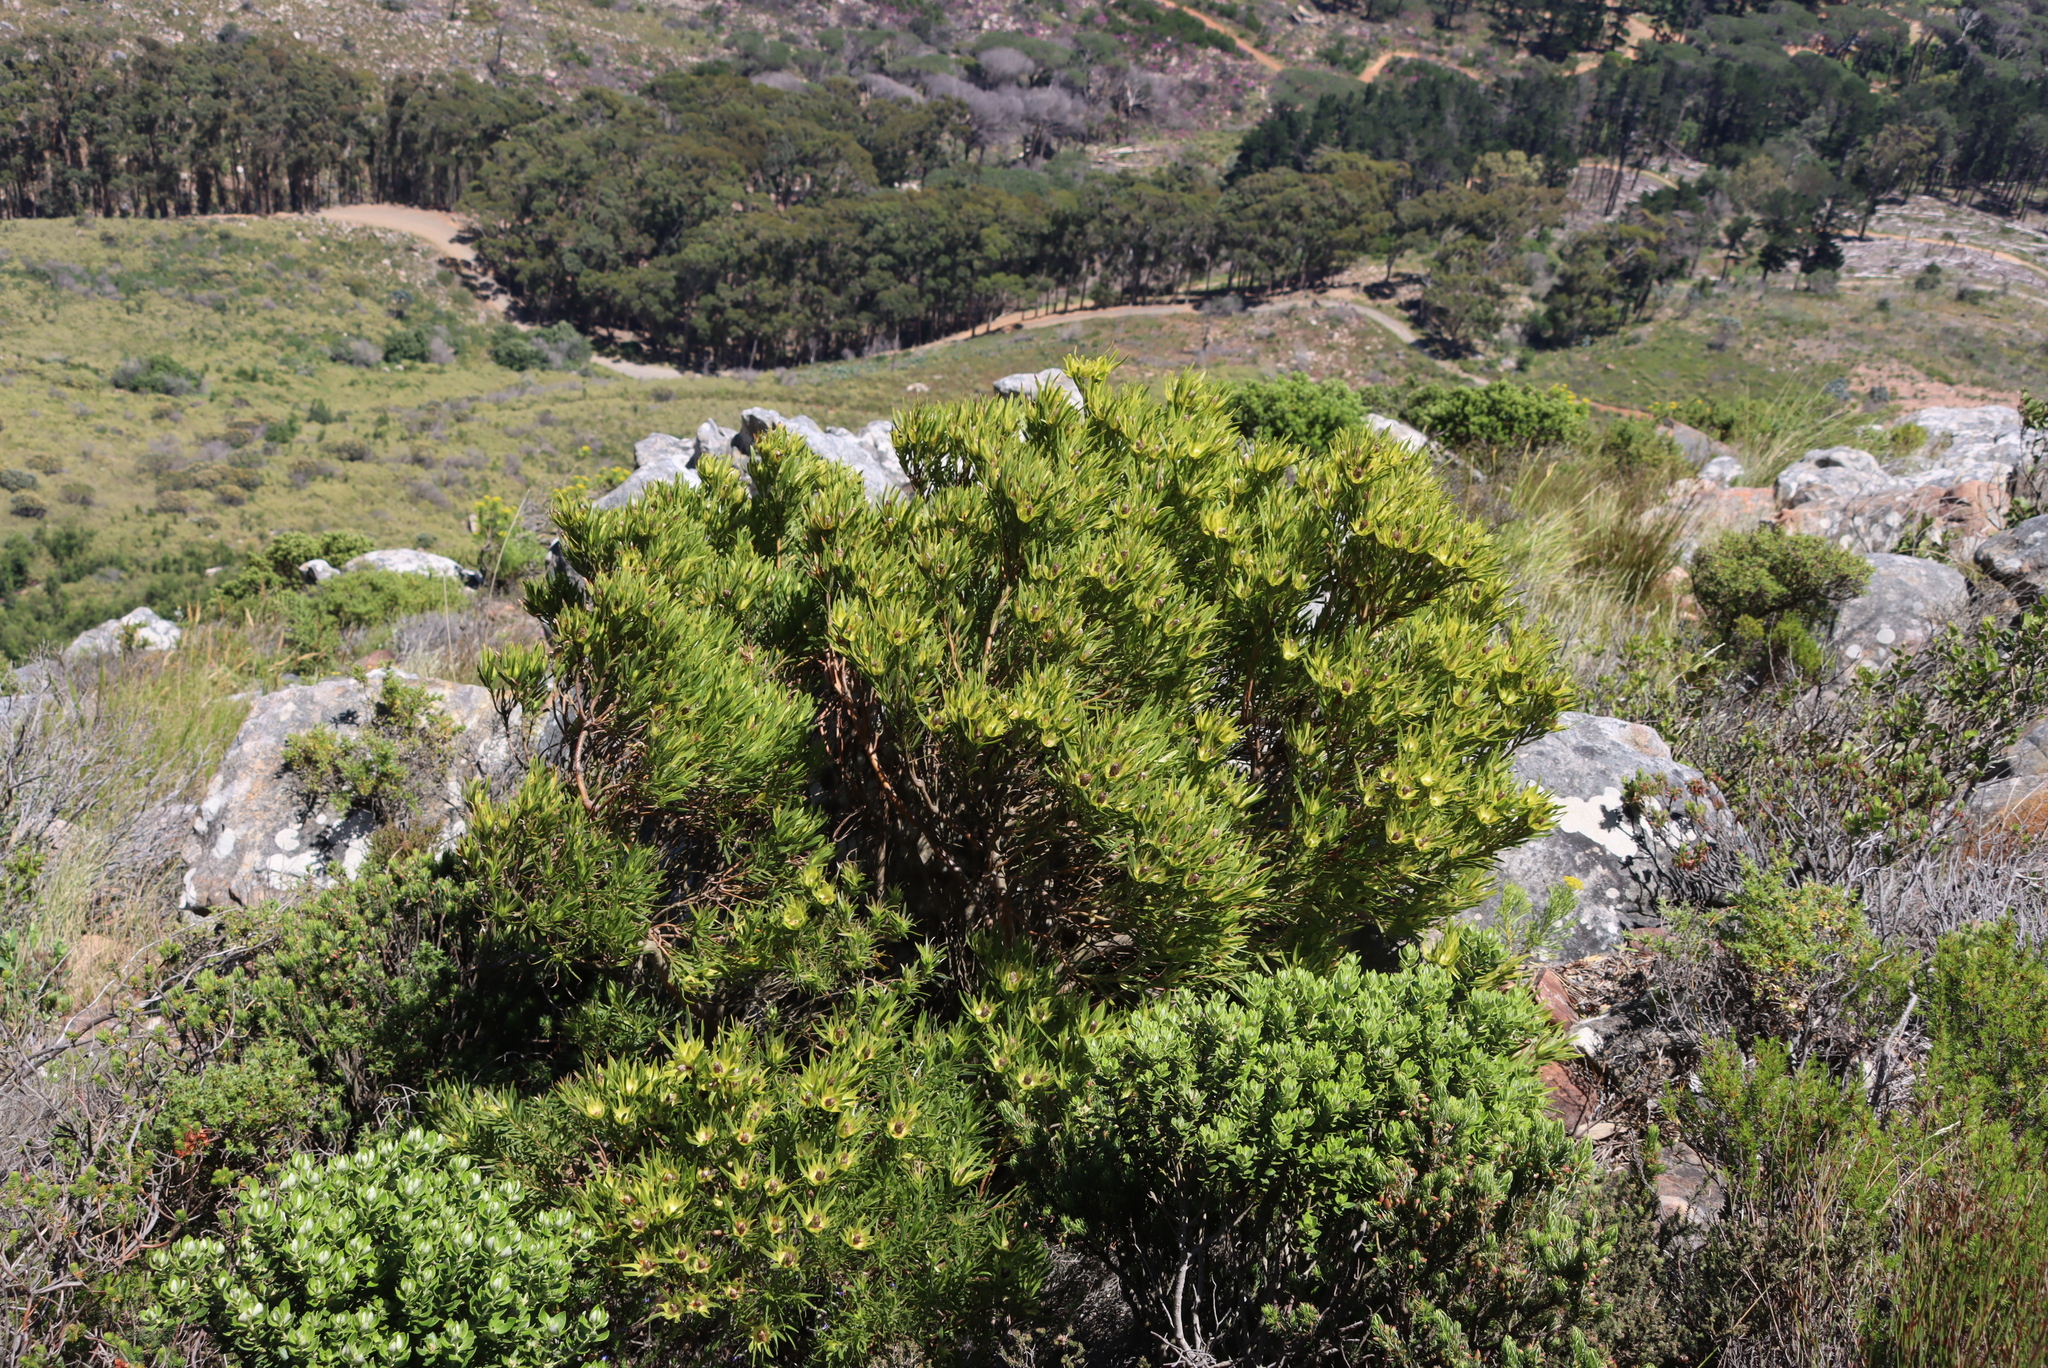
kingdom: Plantae
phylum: Tracheophyta
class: Magnoliopsida
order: Proteales
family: Proteaceae
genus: Leucadendron
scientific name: Leucadendron xanthoconus
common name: Sickle-leaf conebush
